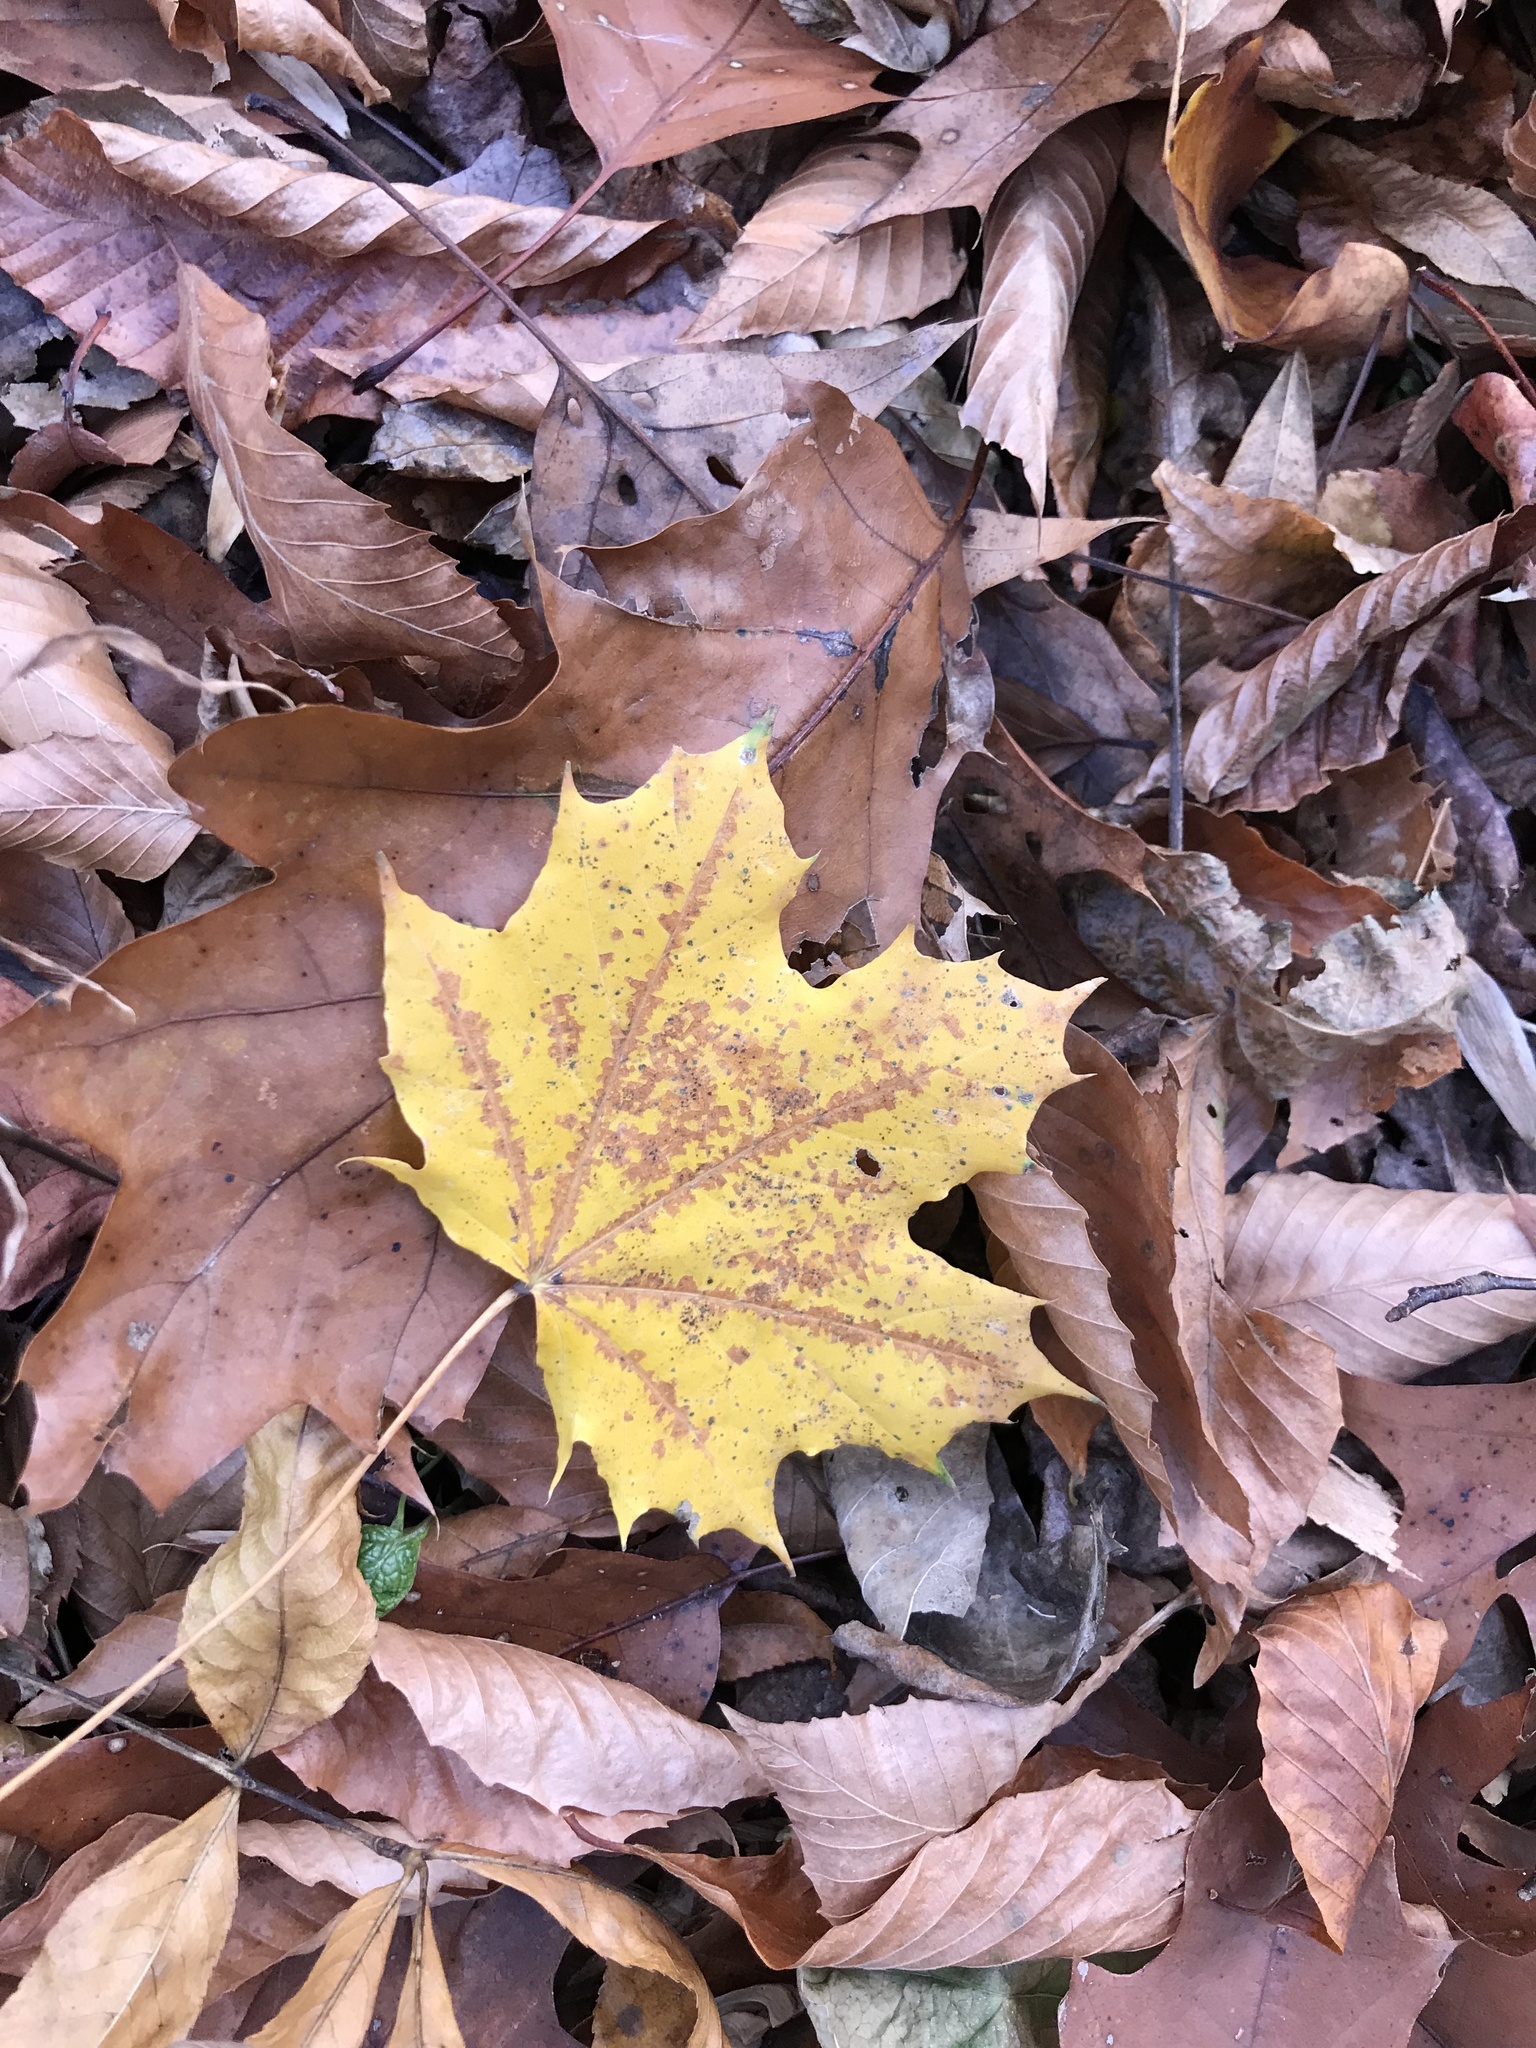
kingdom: Plantae
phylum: Tracheophyta
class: Magnoliopsida
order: Sapindales
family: Sapindaceae
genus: Acer
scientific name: Acer platanoides
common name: Norway maple
